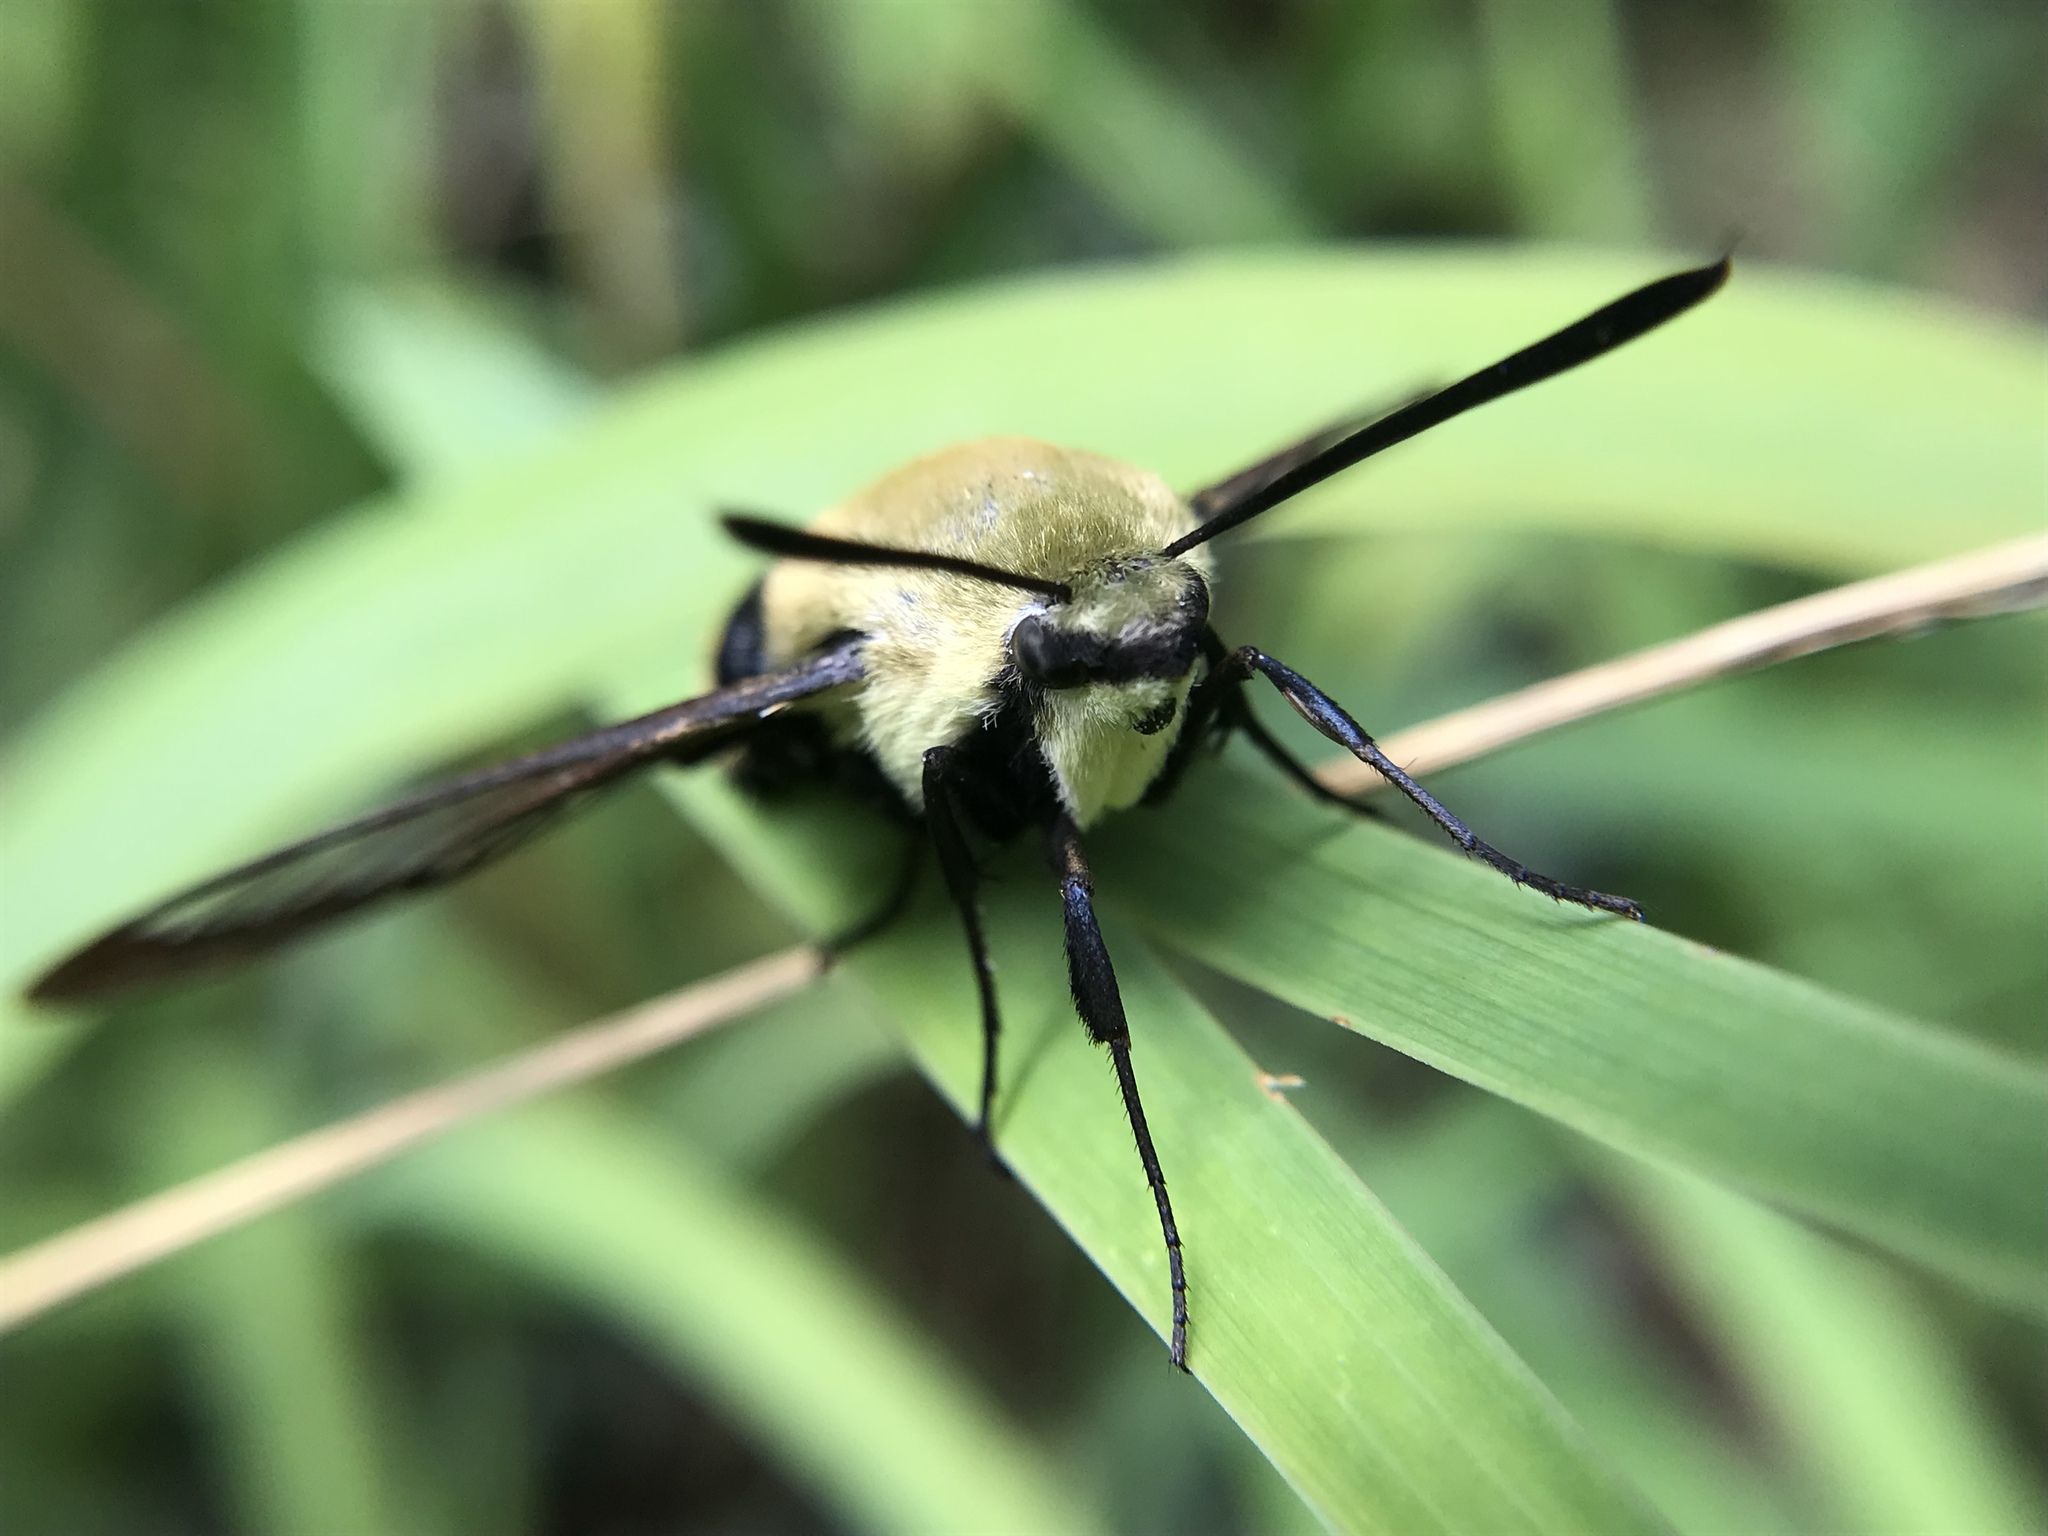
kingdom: Animalia
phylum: Arthropoda
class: Insecta
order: Lepidoptera
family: Sphingidae
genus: Hemaris
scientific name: Hemaris diffinis
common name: Bumblebee moth
